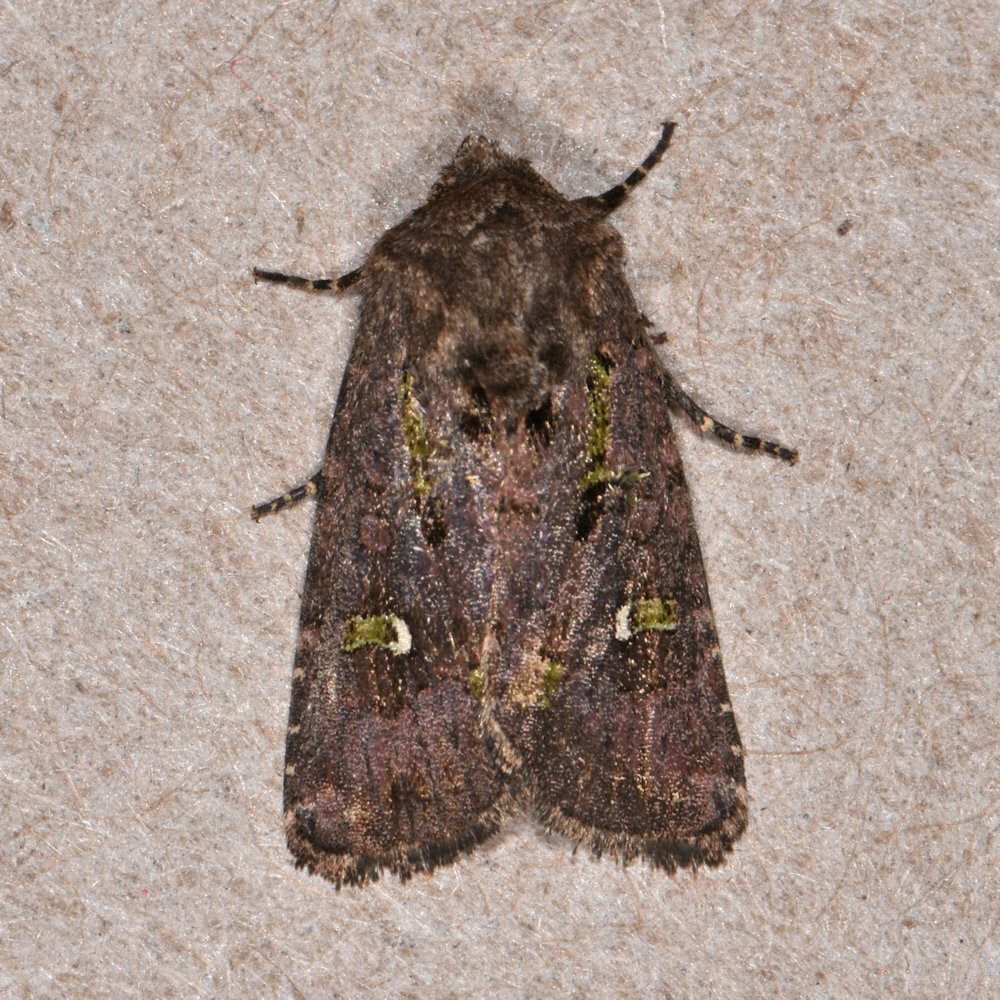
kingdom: Animalia
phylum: Arthropoda
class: Insecta
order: Lepidoptera
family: Noctuidae
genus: Lacinipolia
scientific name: Lacinipolia renigera
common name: Kidney-spotted minor
